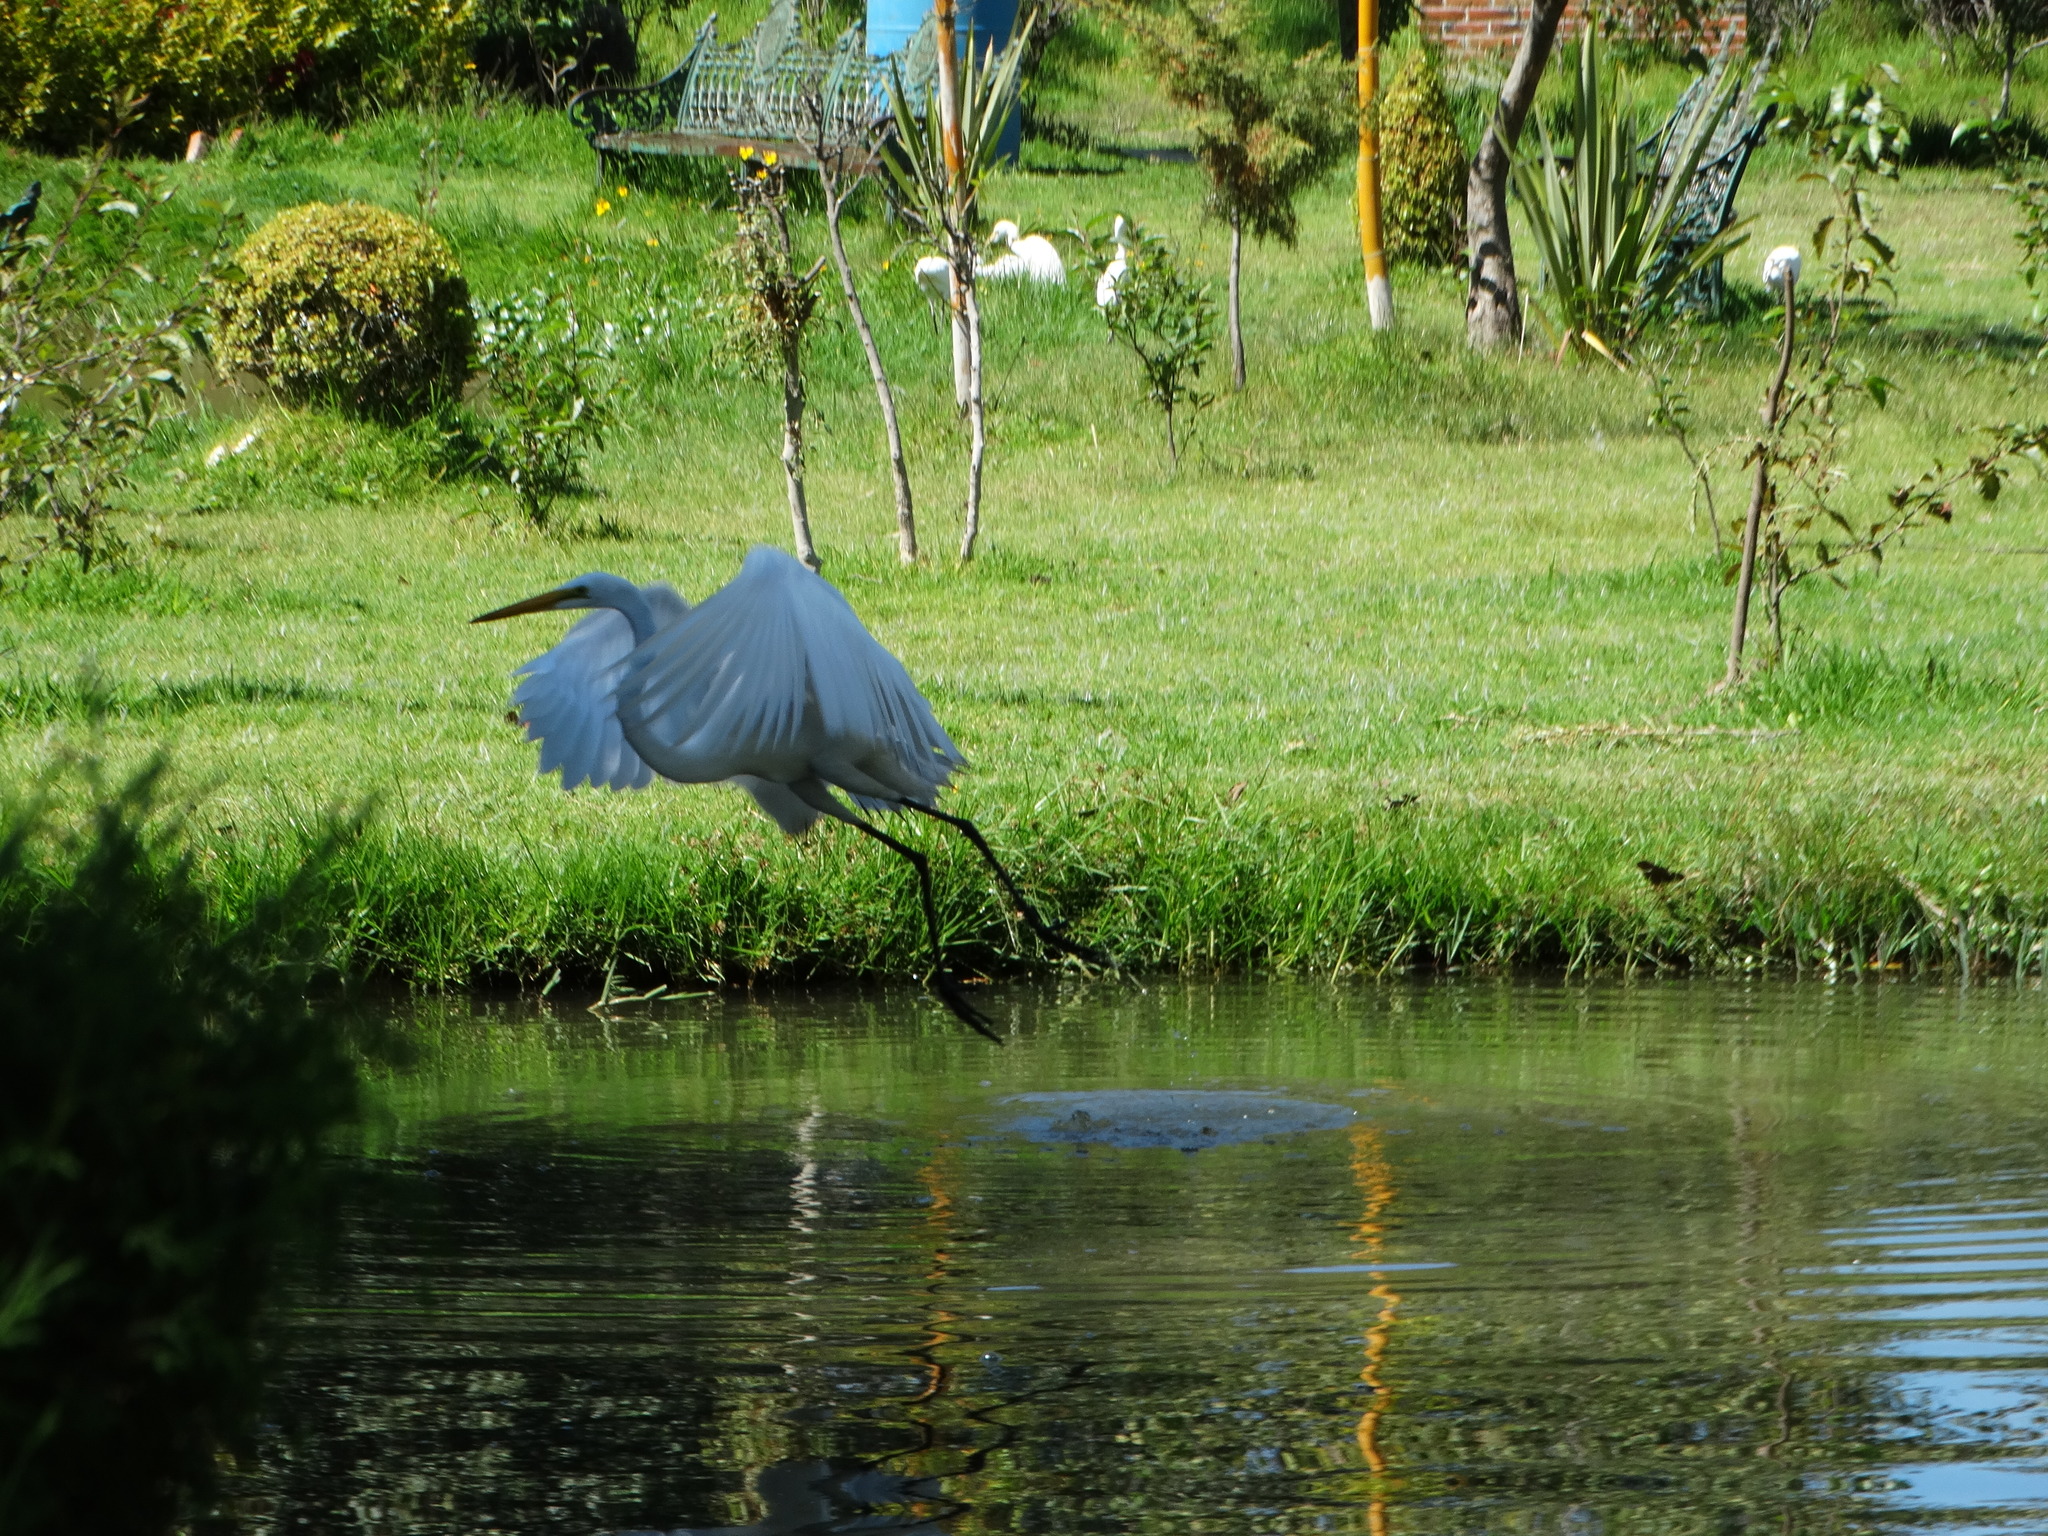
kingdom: Animalia
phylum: Chordata
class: Aves
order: Pelecaniformes
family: Ardeidae
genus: Ardea
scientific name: Ardea alba
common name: Great egret
